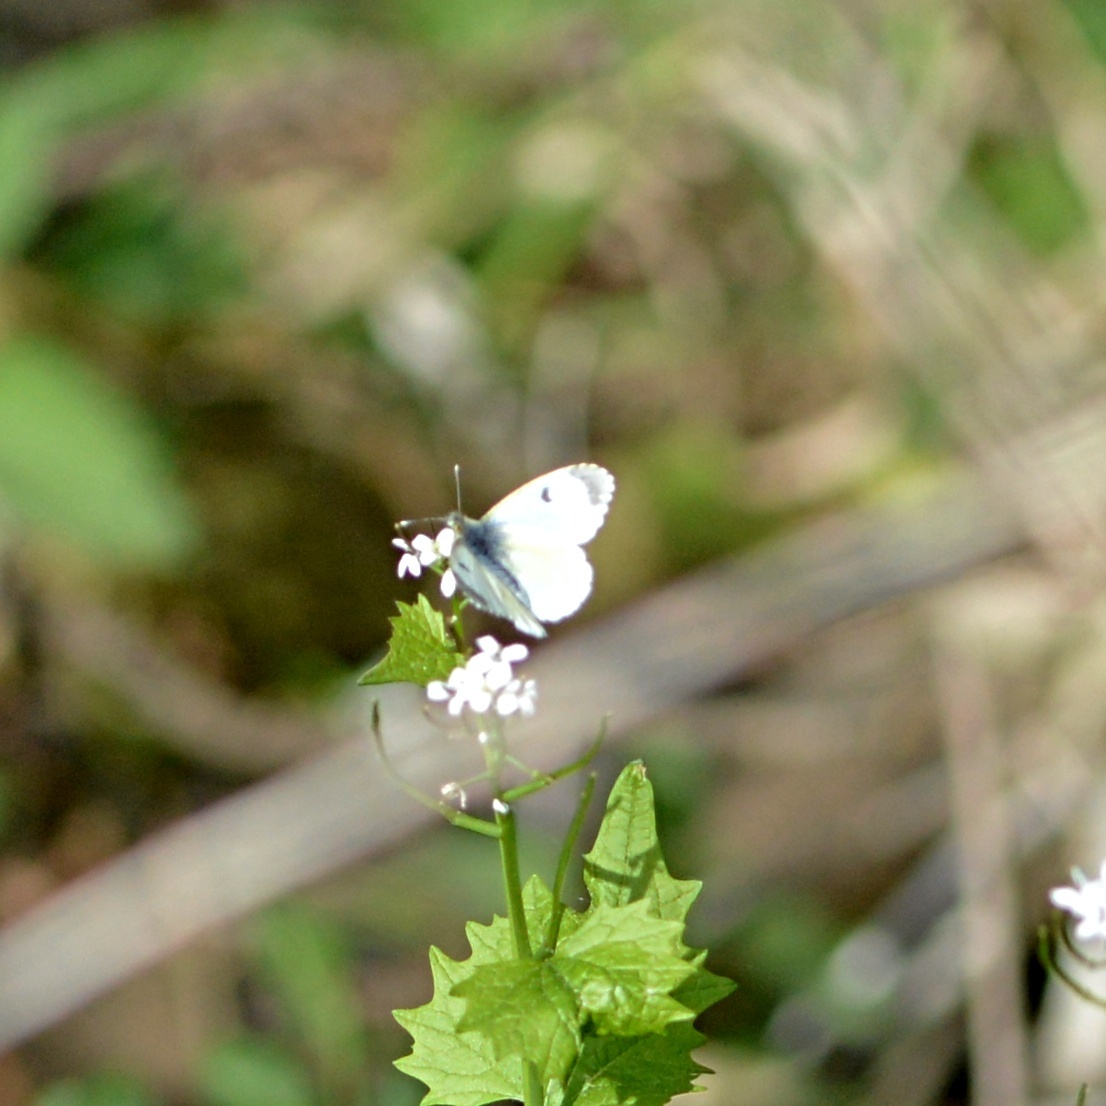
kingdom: Animalia
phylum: Arthropoda
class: Insecta
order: Lepidoptera
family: Pieridae
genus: Anthocharis
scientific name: Anthocharis cardamines
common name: Orange-tip
